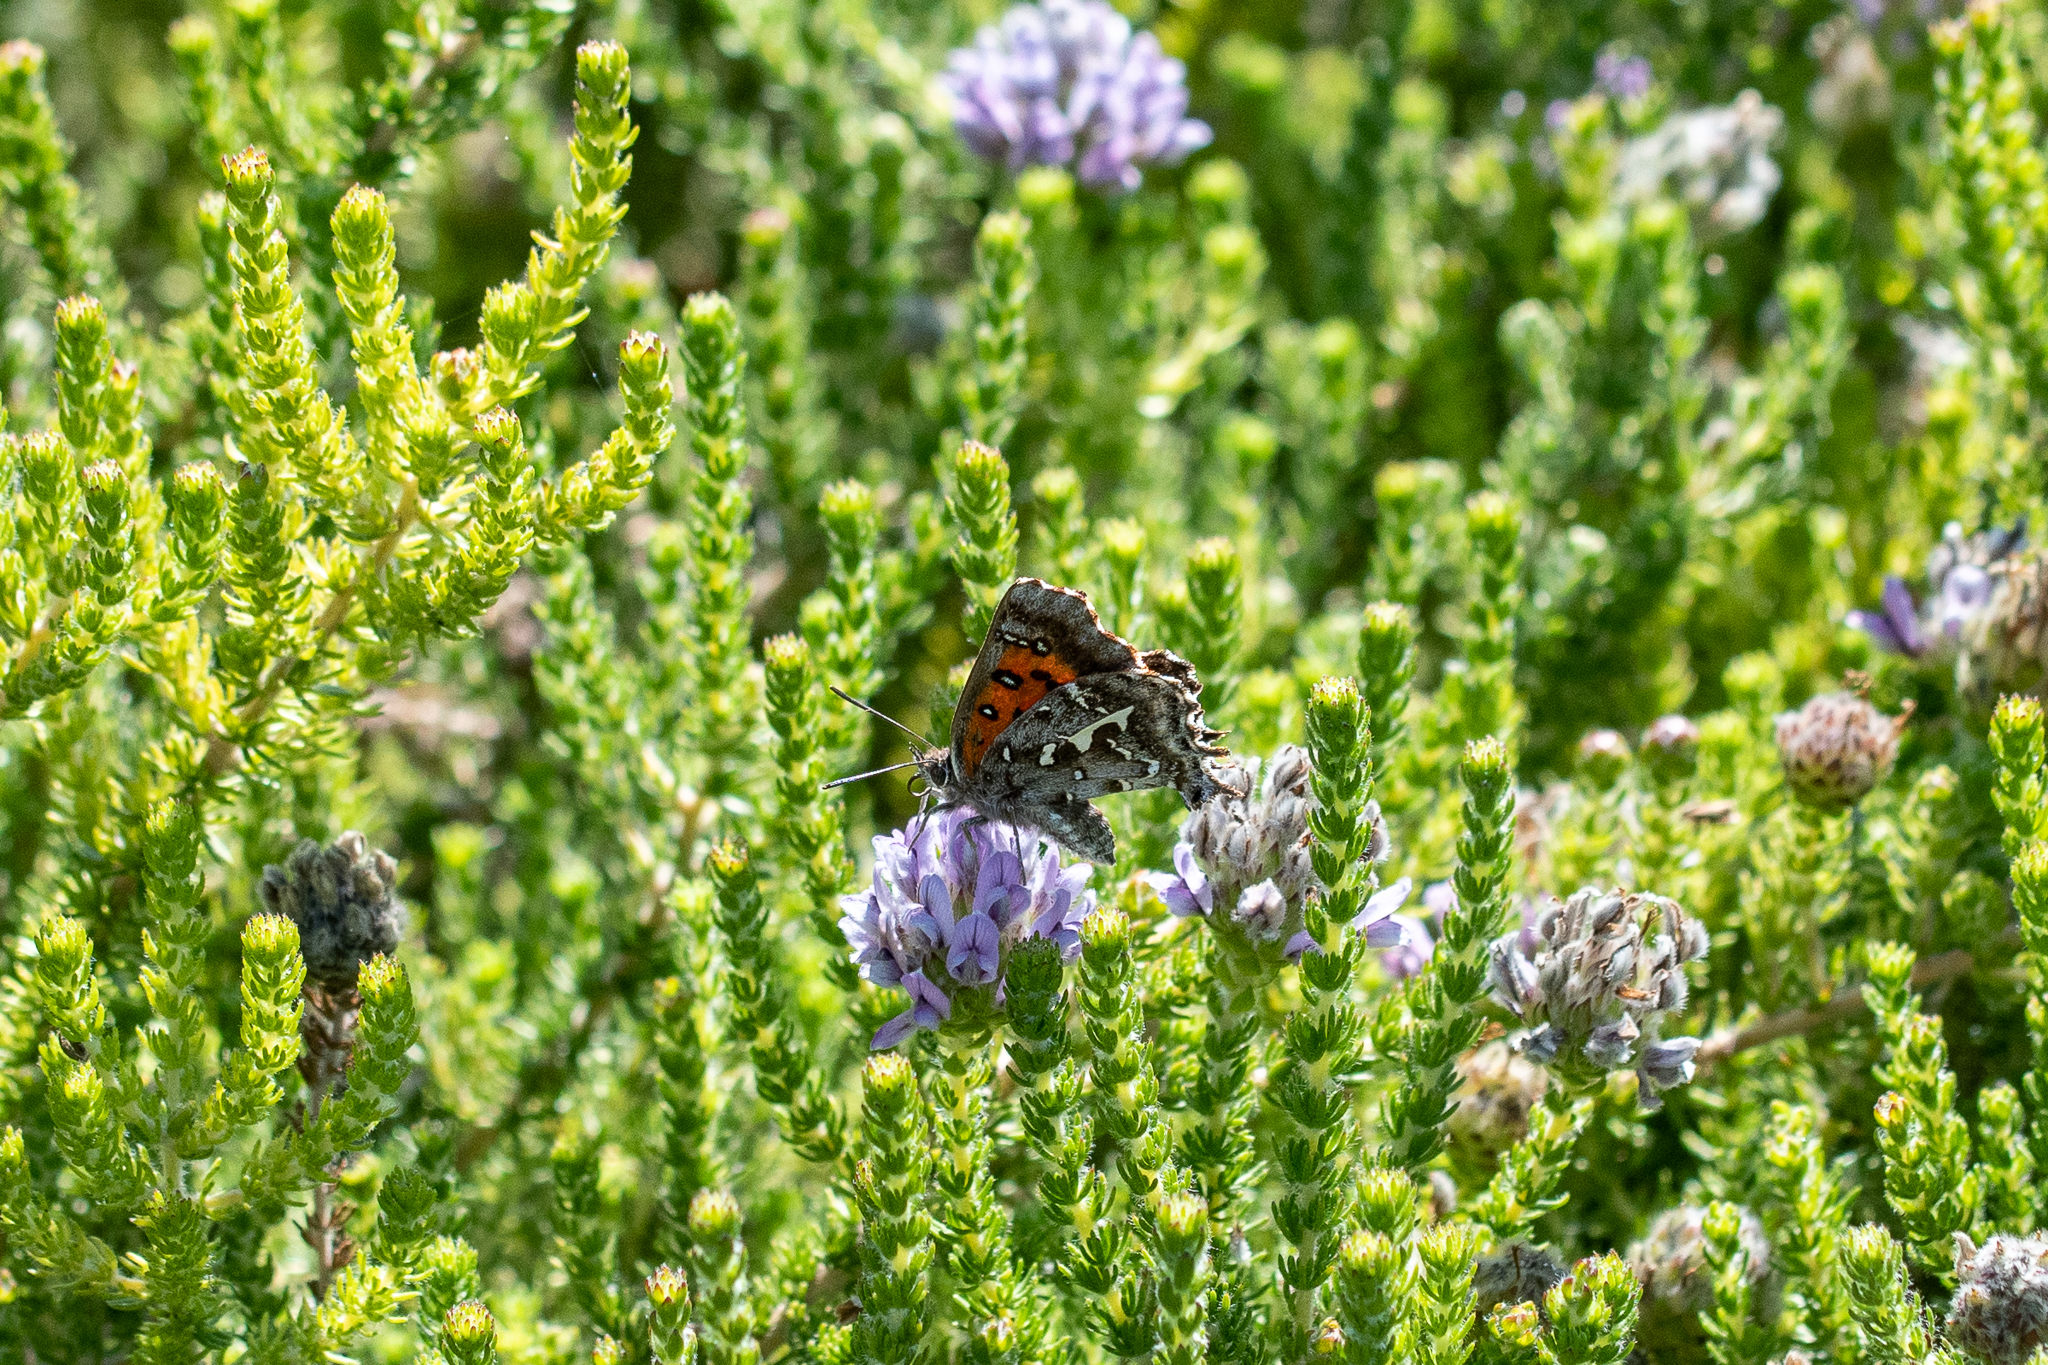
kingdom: Animalia
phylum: Arthropoda
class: Insecta
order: Lepidoptera
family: Lycaenidae
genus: Phasis
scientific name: Phasis thero
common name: Silver arrowhead
